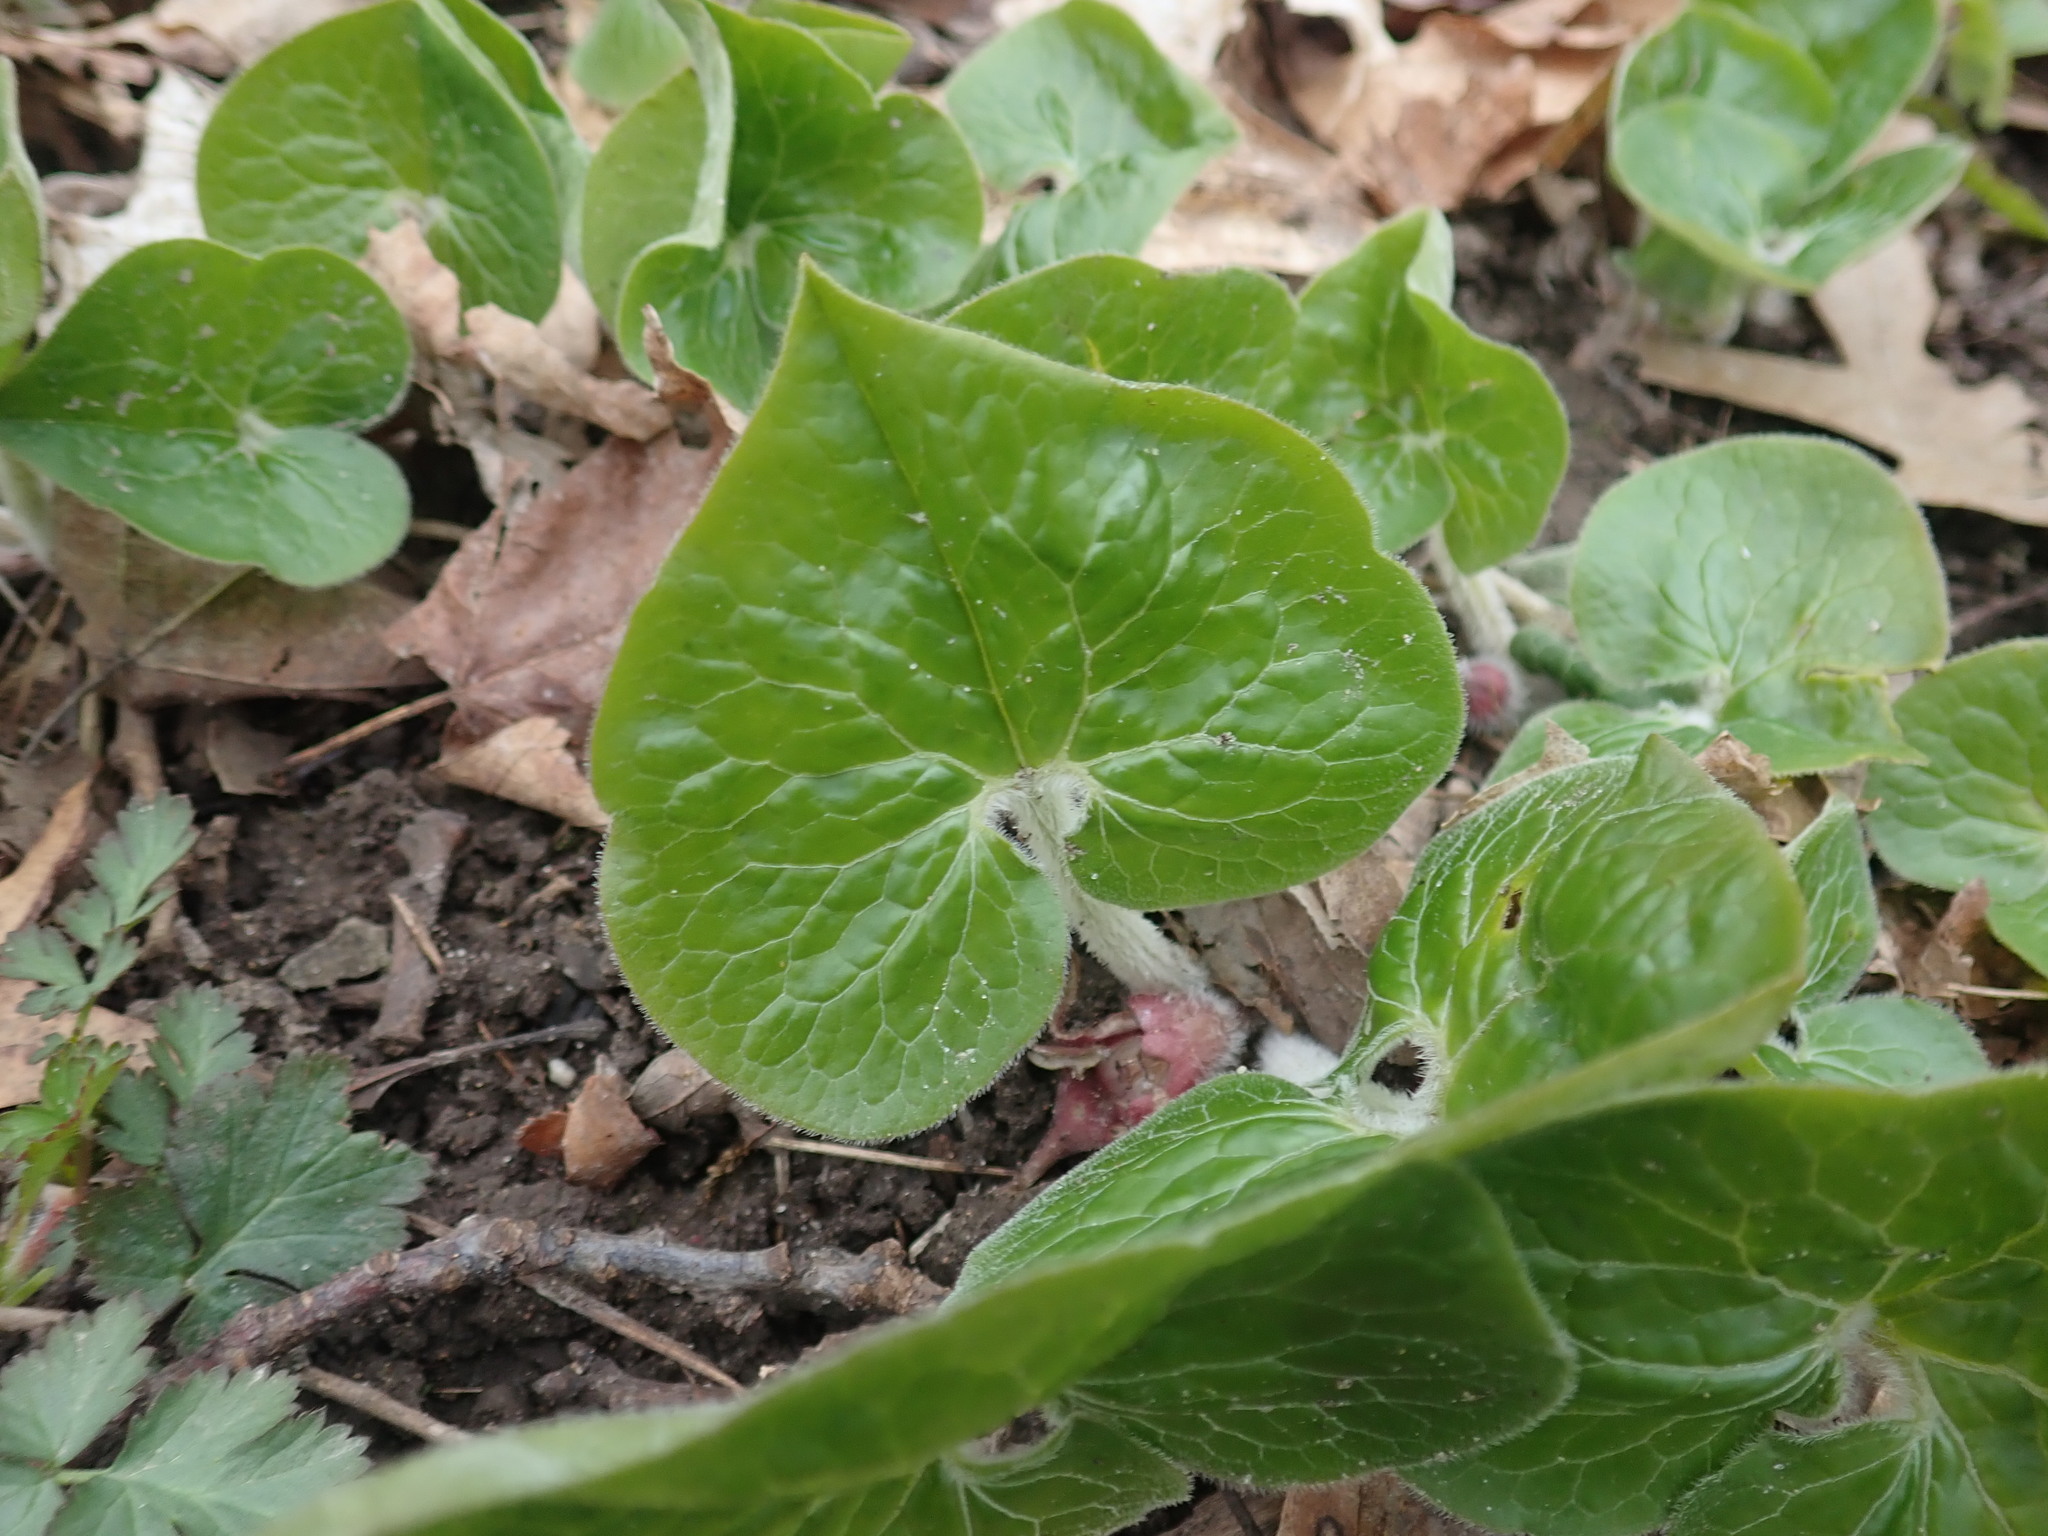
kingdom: Plantae
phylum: Tracheophyta
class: Magnoliopsida
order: Piperales
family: Aristolochiaceae
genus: Asarum
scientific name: Asarum canadense
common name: Wild ginger
